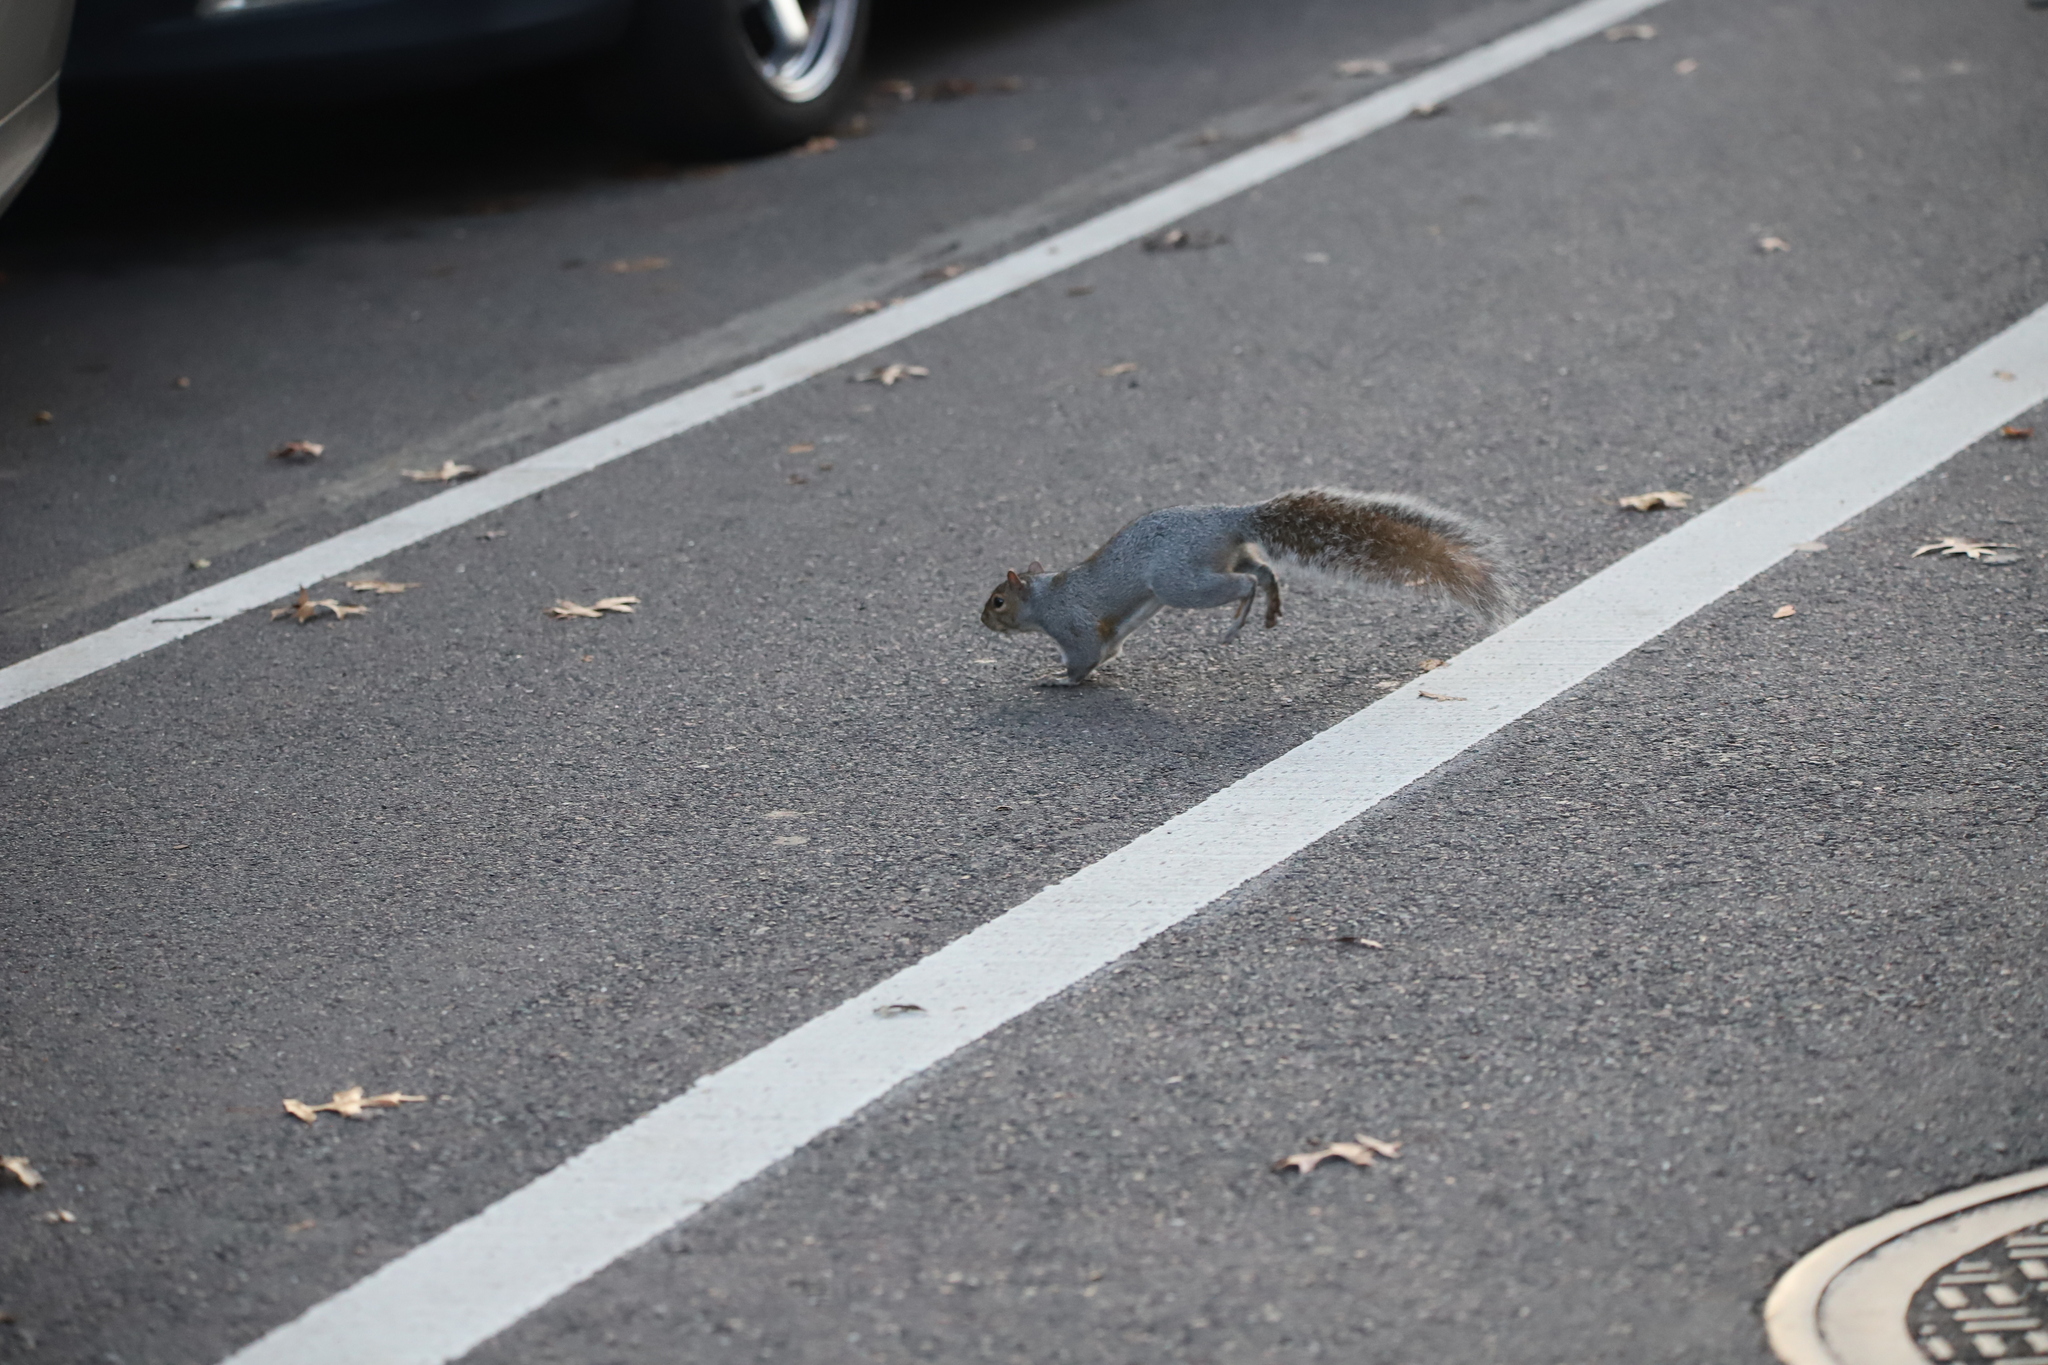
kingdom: Animalia
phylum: Chordata
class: Mammalia
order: Rodentia
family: Sciuridae
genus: Sciurus
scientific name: Sciurus carolinensis
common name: Eastern gray squirrel
